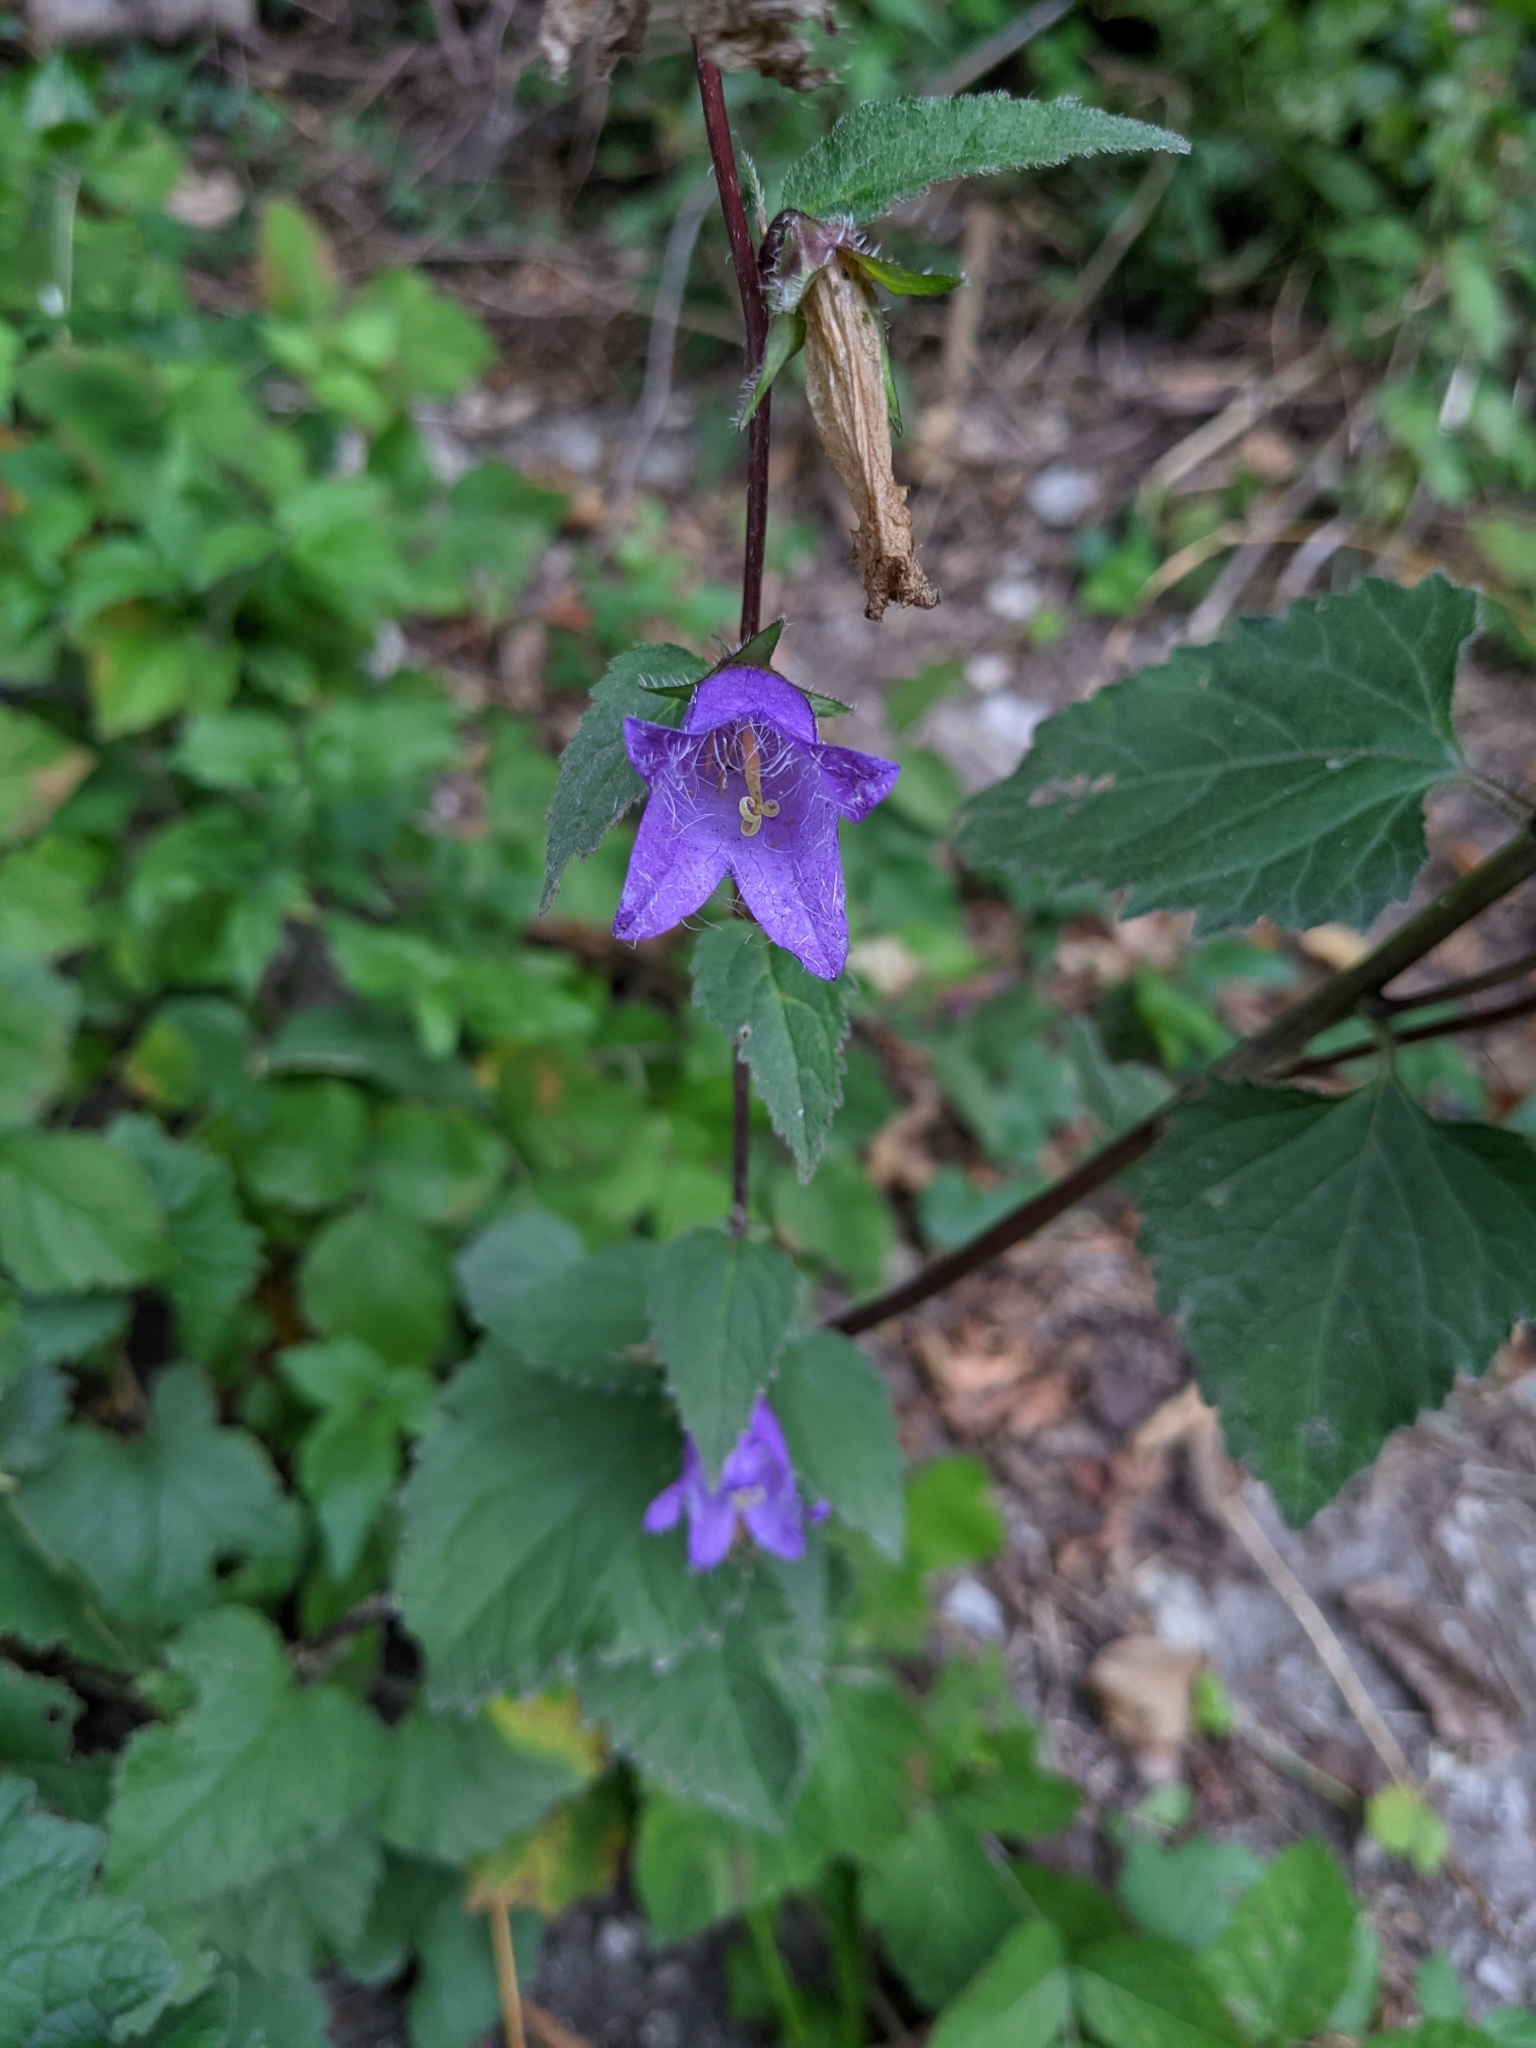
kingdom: Plantae
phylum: Tracheophyta
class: Magnoliopsida
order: Asterales
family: Campanulaceae
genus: Campanula
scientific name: Campanula trachelium
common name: Nettle-leaved bellflower
